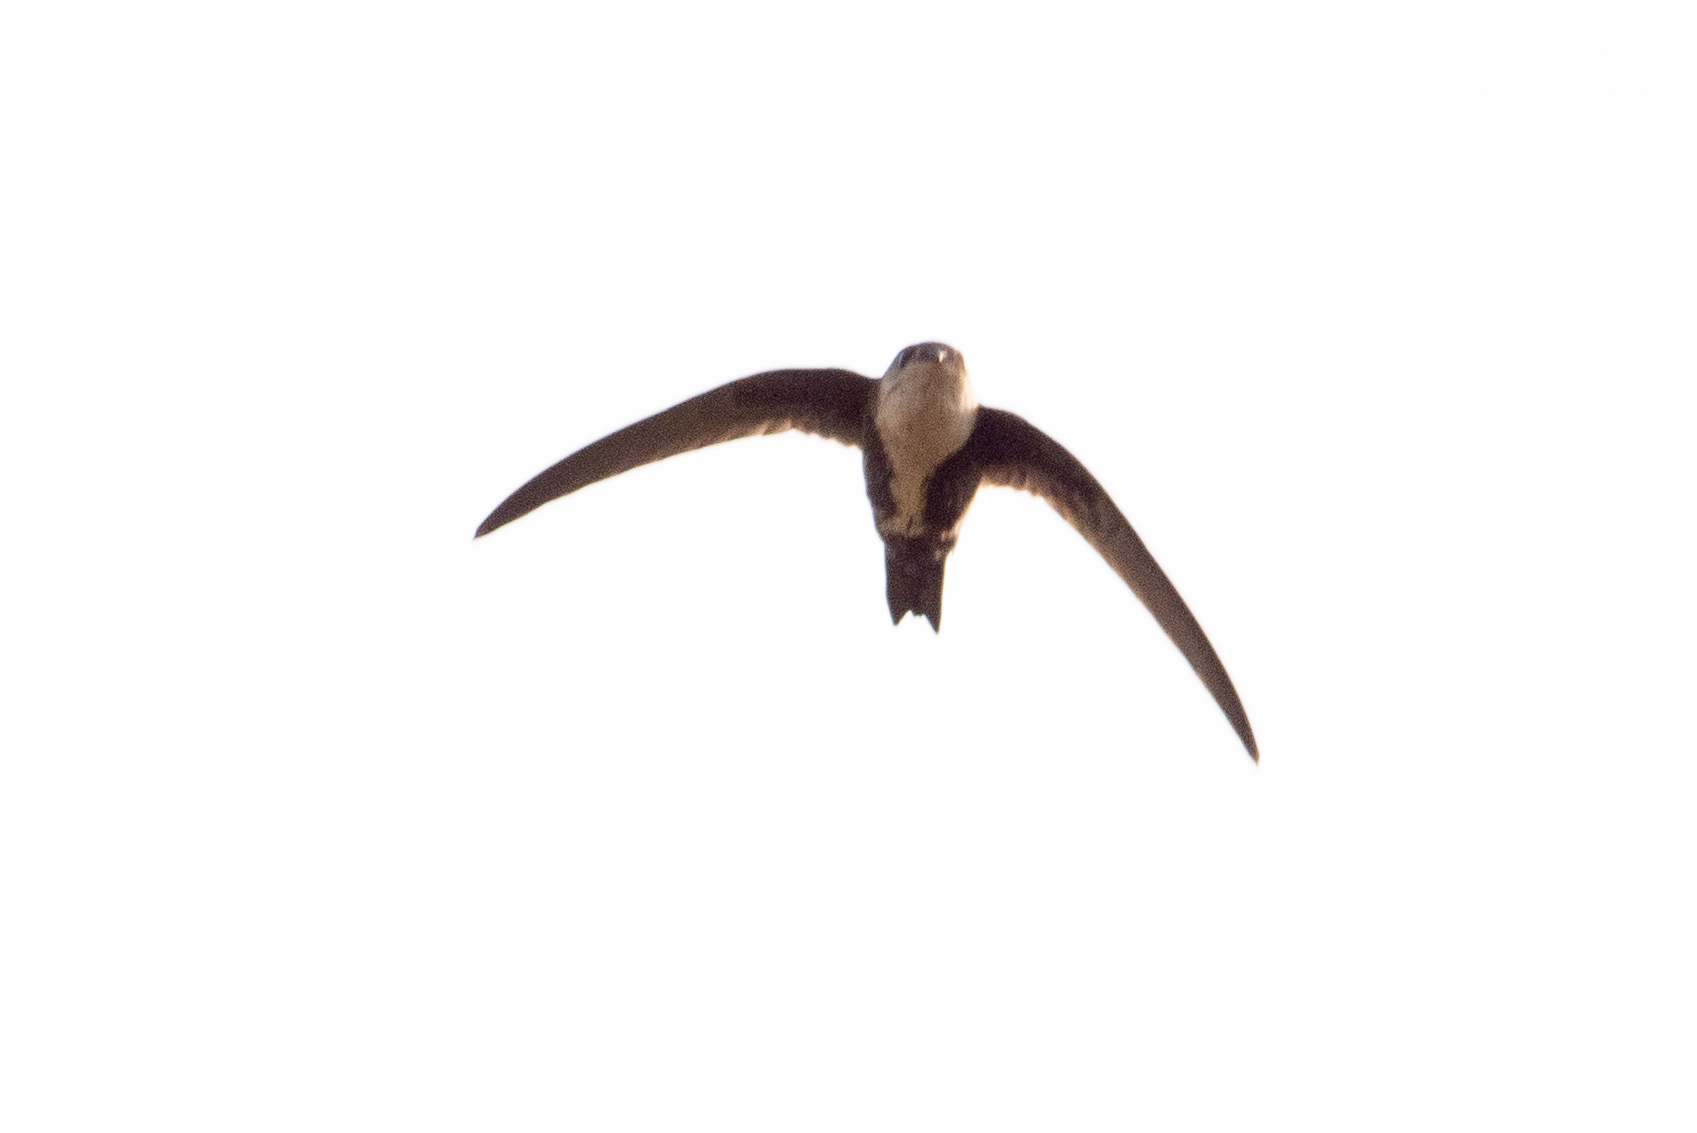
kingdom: Animalia
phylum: Chordata
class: Aves
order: Apodiformes
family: Apodidae
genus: Aeronautes
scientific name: Aeronautes saxatalis
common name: White-throated swift
